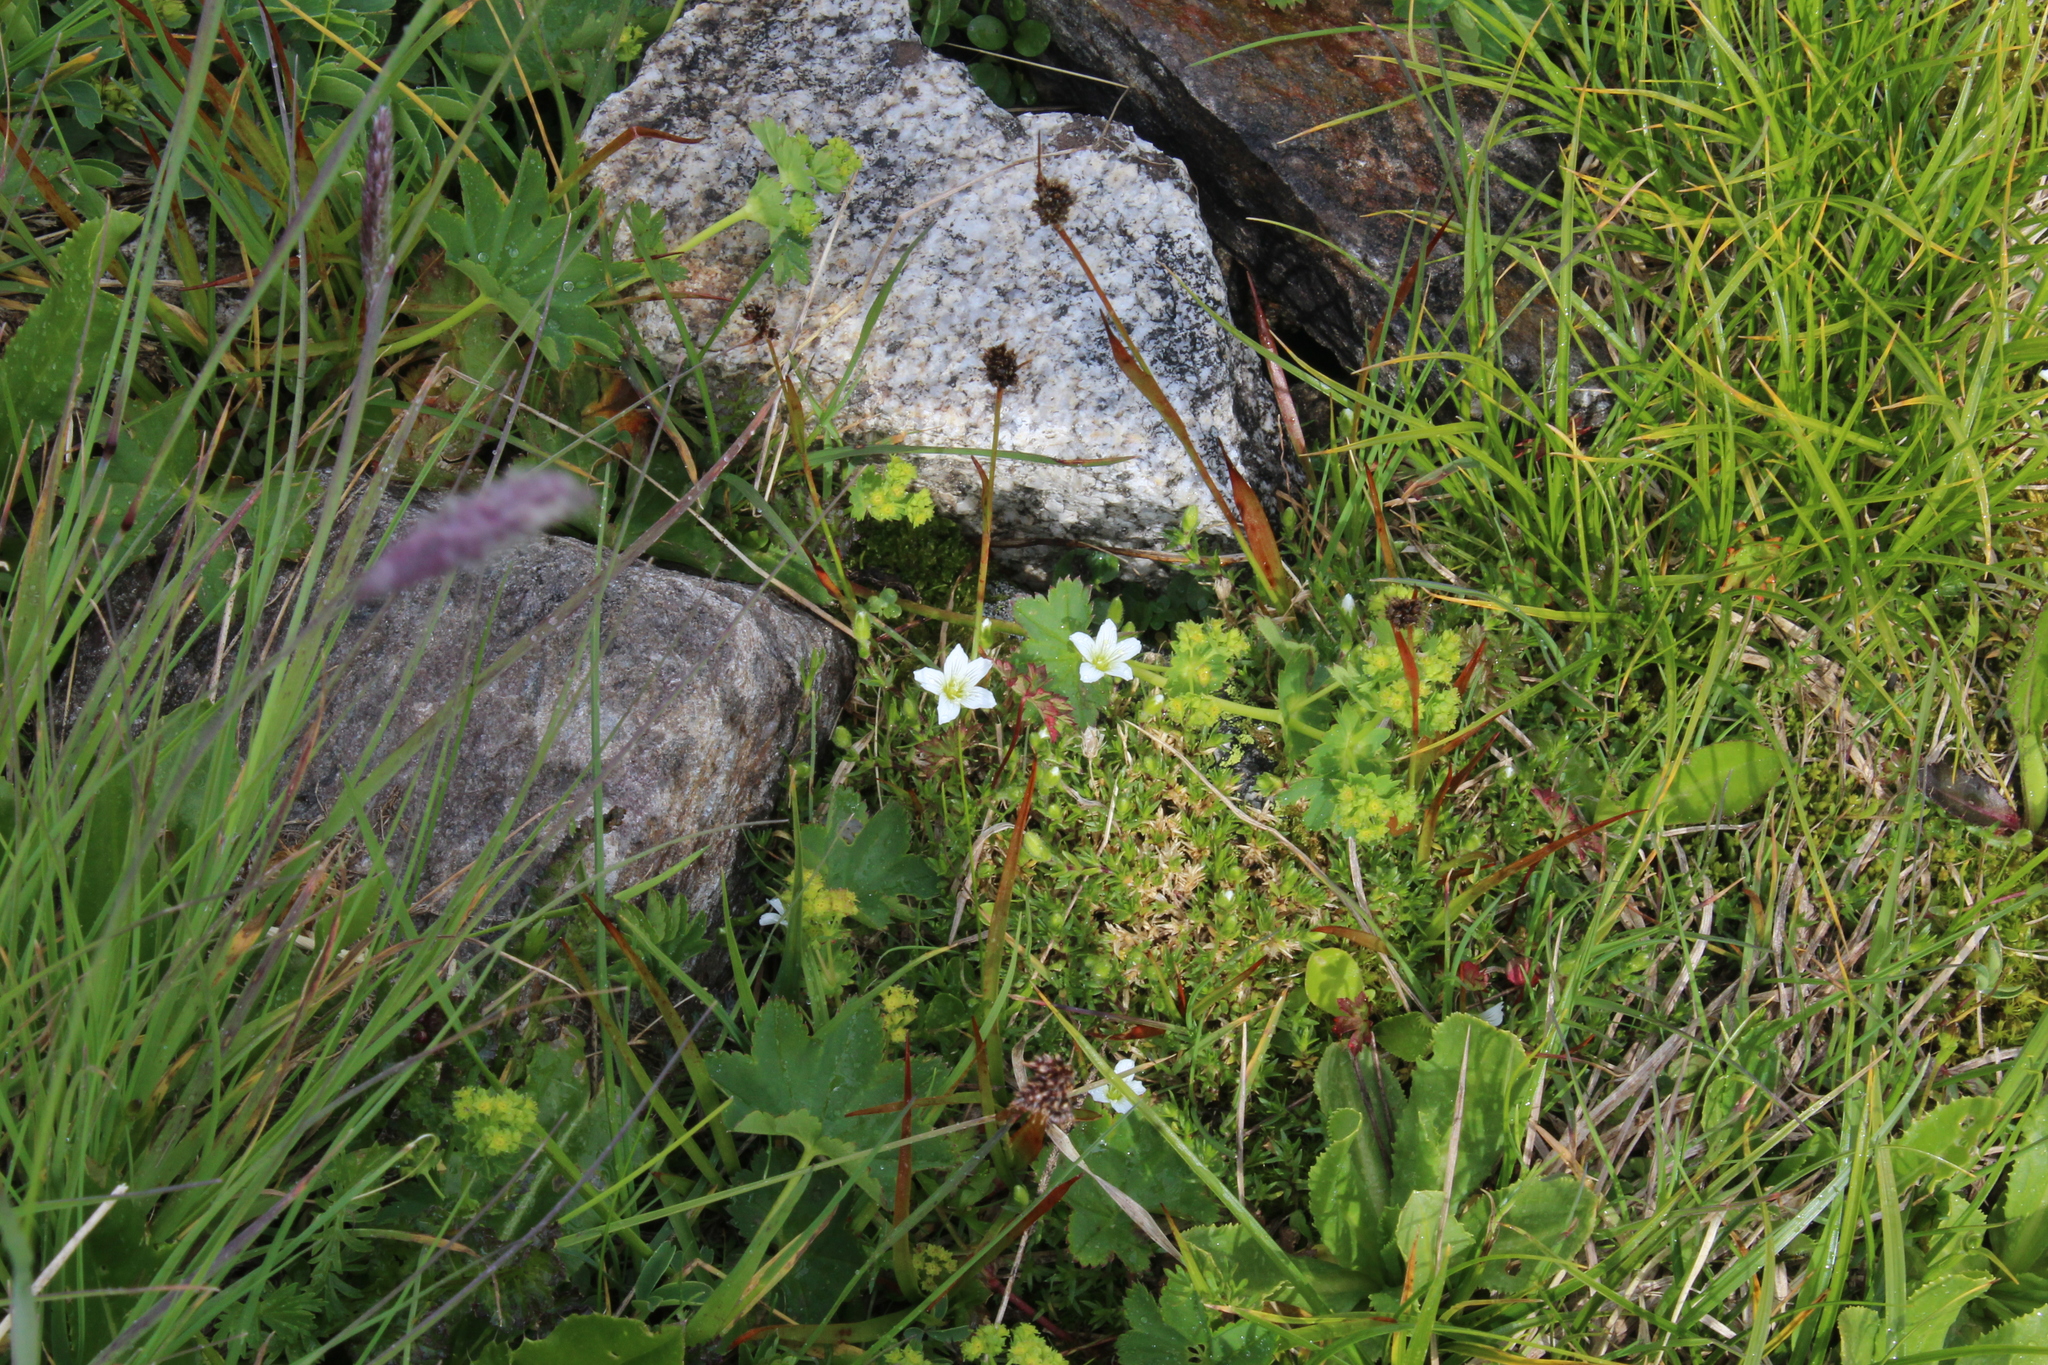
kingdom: Plantae
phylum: Tracheophyta
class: Magnoliopsida
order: Caryophyllales
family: Caryophyllaceae
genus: Pseudocherleria
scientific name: Pseudocherleria imbricata
